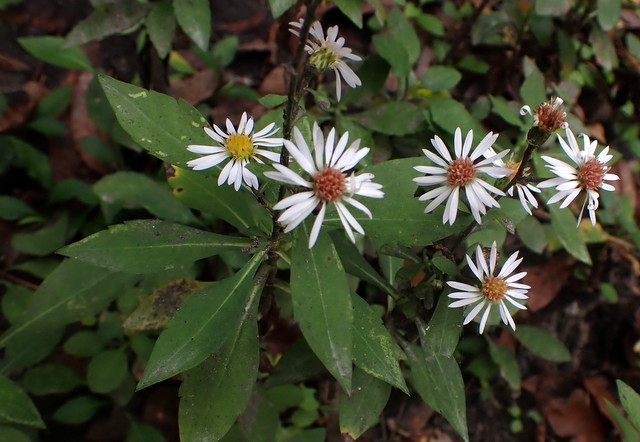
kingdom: Plantae
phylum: Tracheophyta
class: Magnoliopsida
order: Asterales
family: Asteraceae
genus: Symphyotrichum
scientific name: Symphyotrichum elliottii
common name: Southern swamp aster
